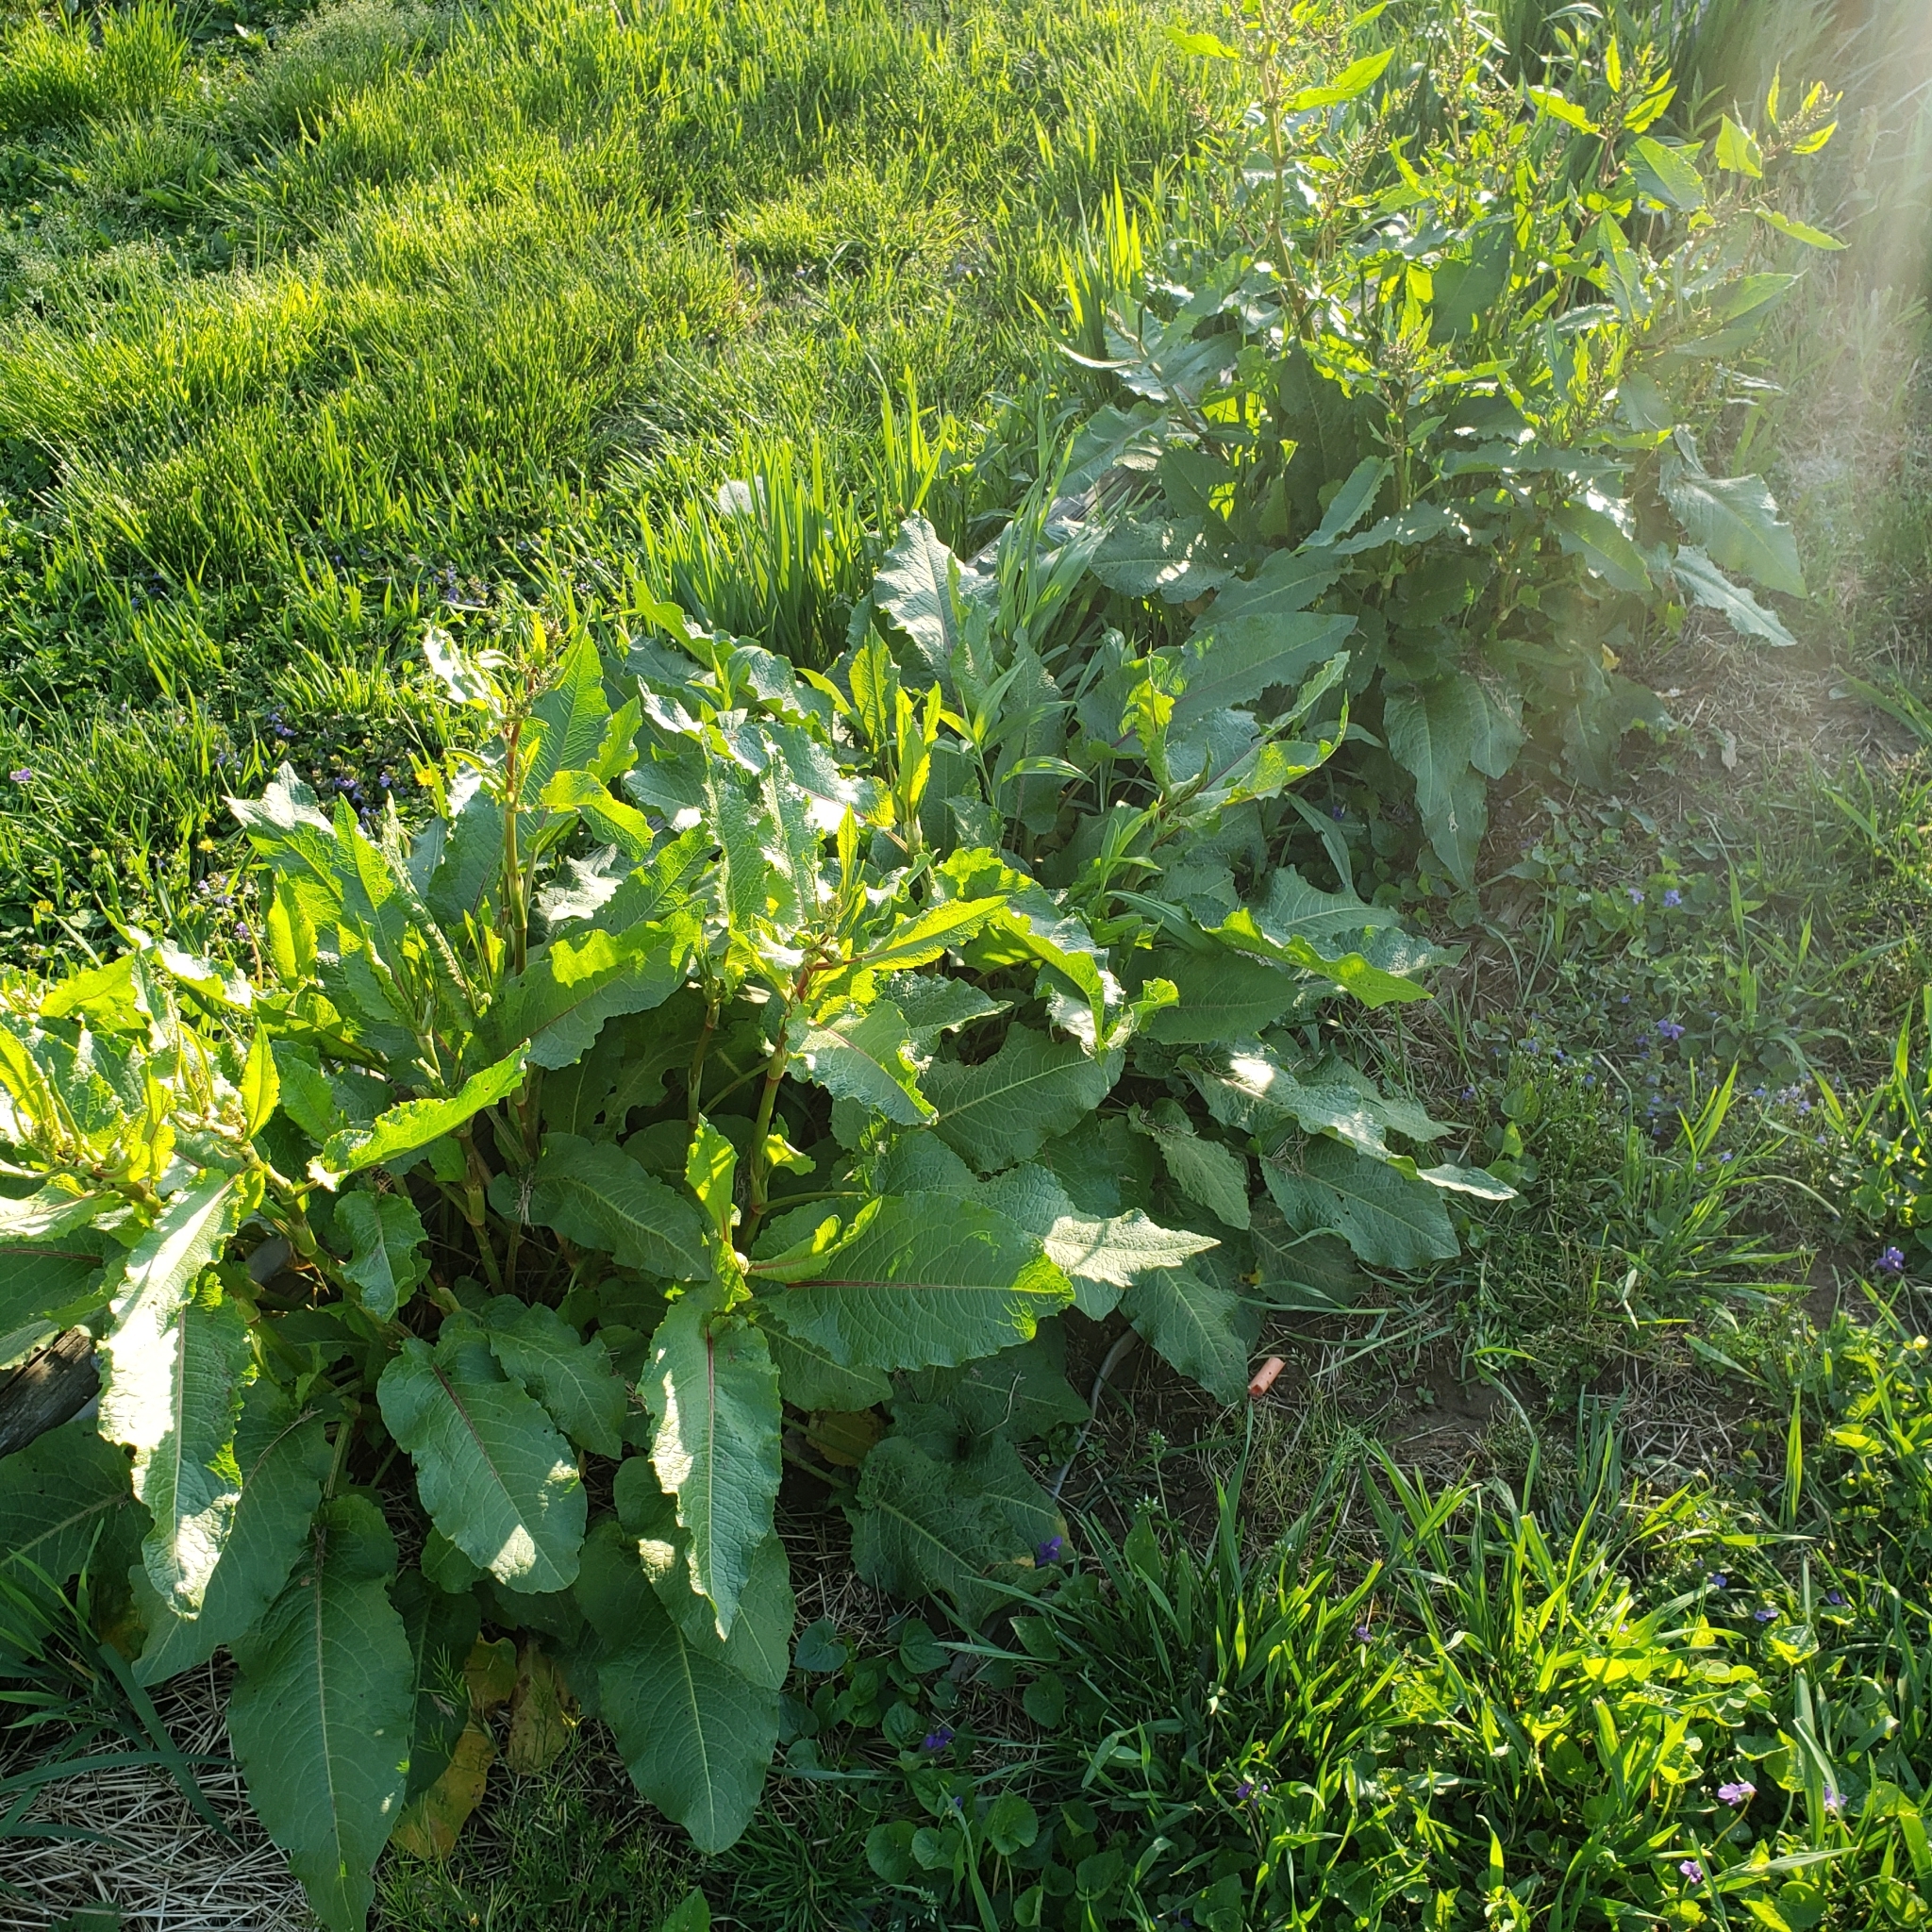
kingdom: Plantae
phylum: Tracheophyta
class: Magnoliopsida
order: Caryophyllales
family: Polygonaceae
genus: Rumex
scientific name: Rumex obtusifolius
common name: Bitter dock
